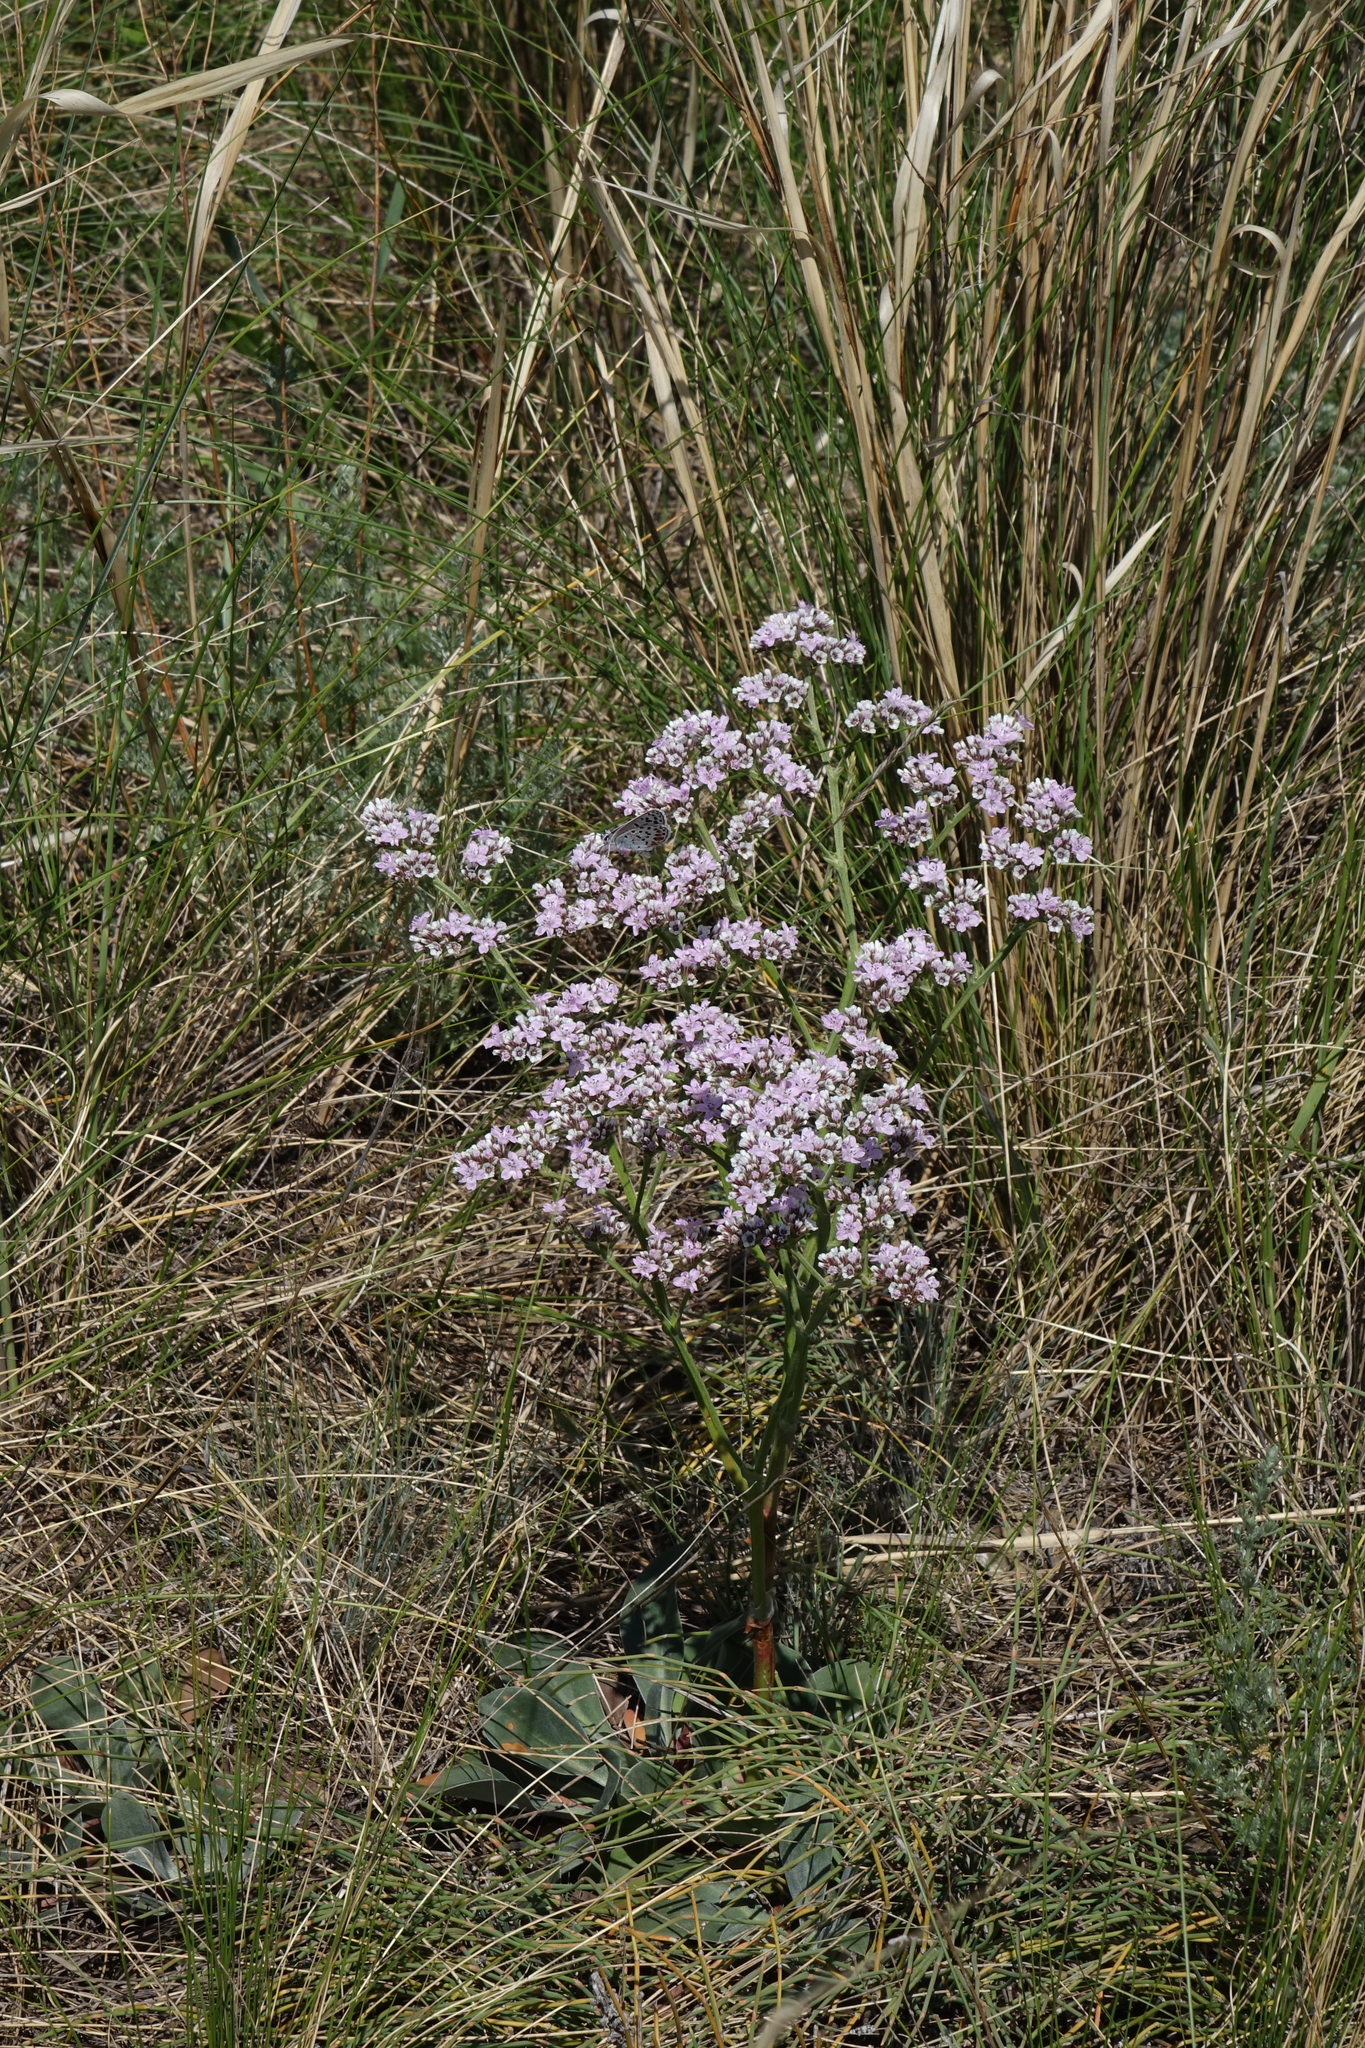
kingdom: Plantae
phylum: Tracheophyta
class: Magnoliopsida
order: Caryophyllales
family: Plumbaginaceae
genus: Goniolimon
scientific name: Goniolimon speciosum
